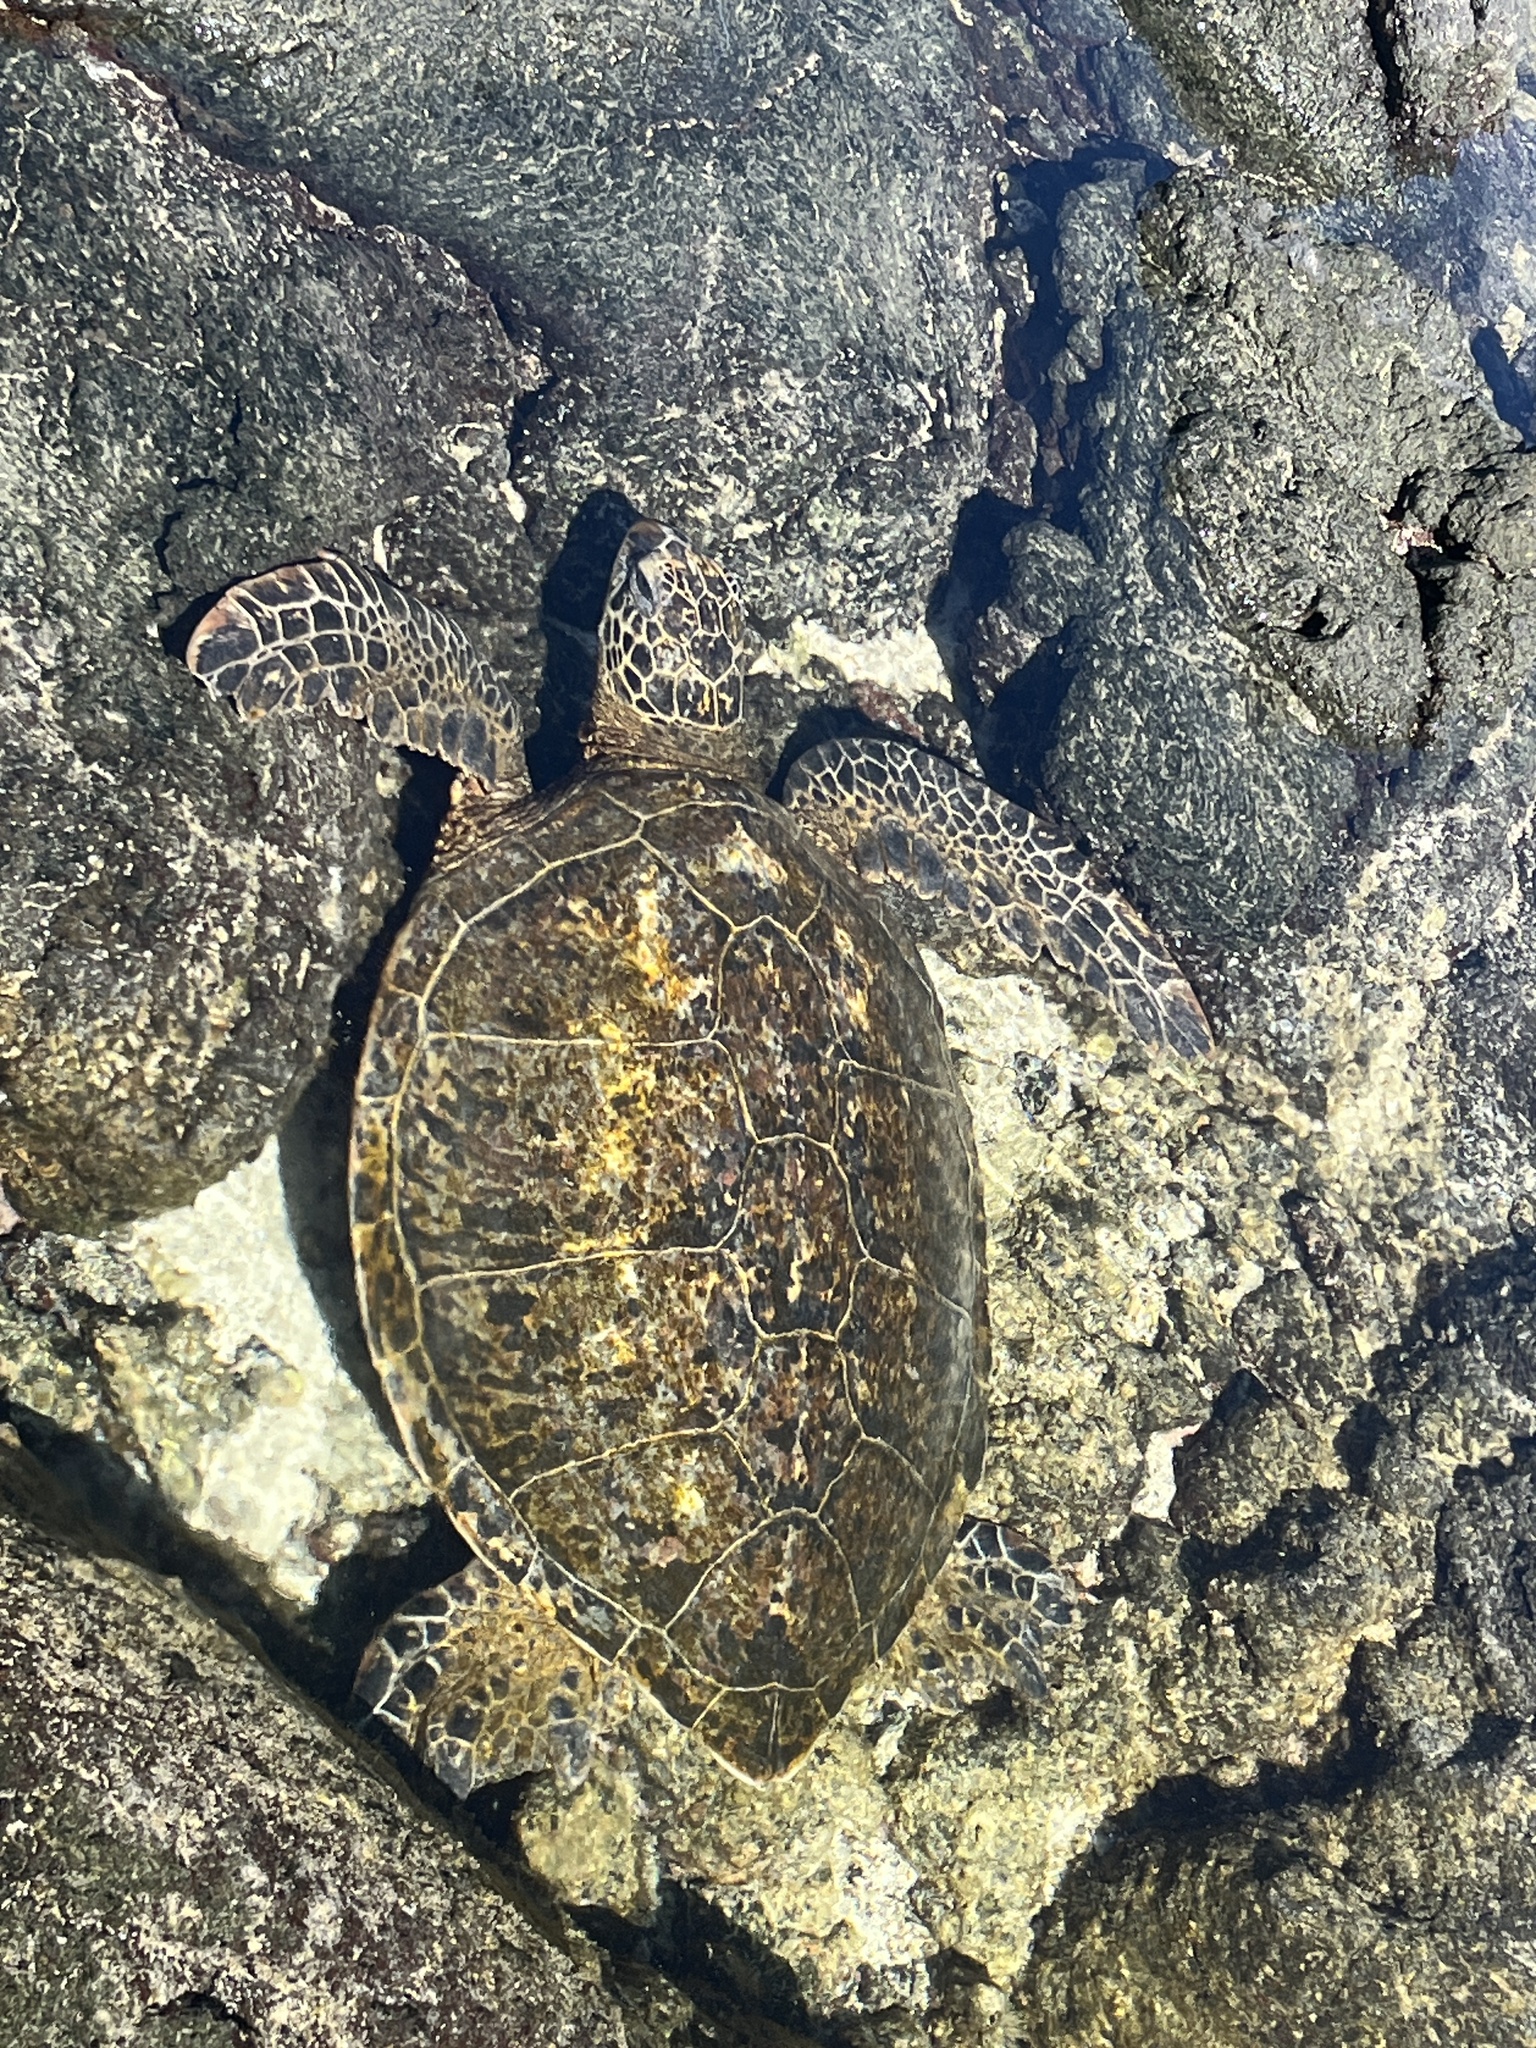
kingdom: Animalia
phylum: Chordata
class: Testudines
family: Cheloniidae
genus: Chelonia
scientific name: Chelonia mydas
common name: Green turtle
